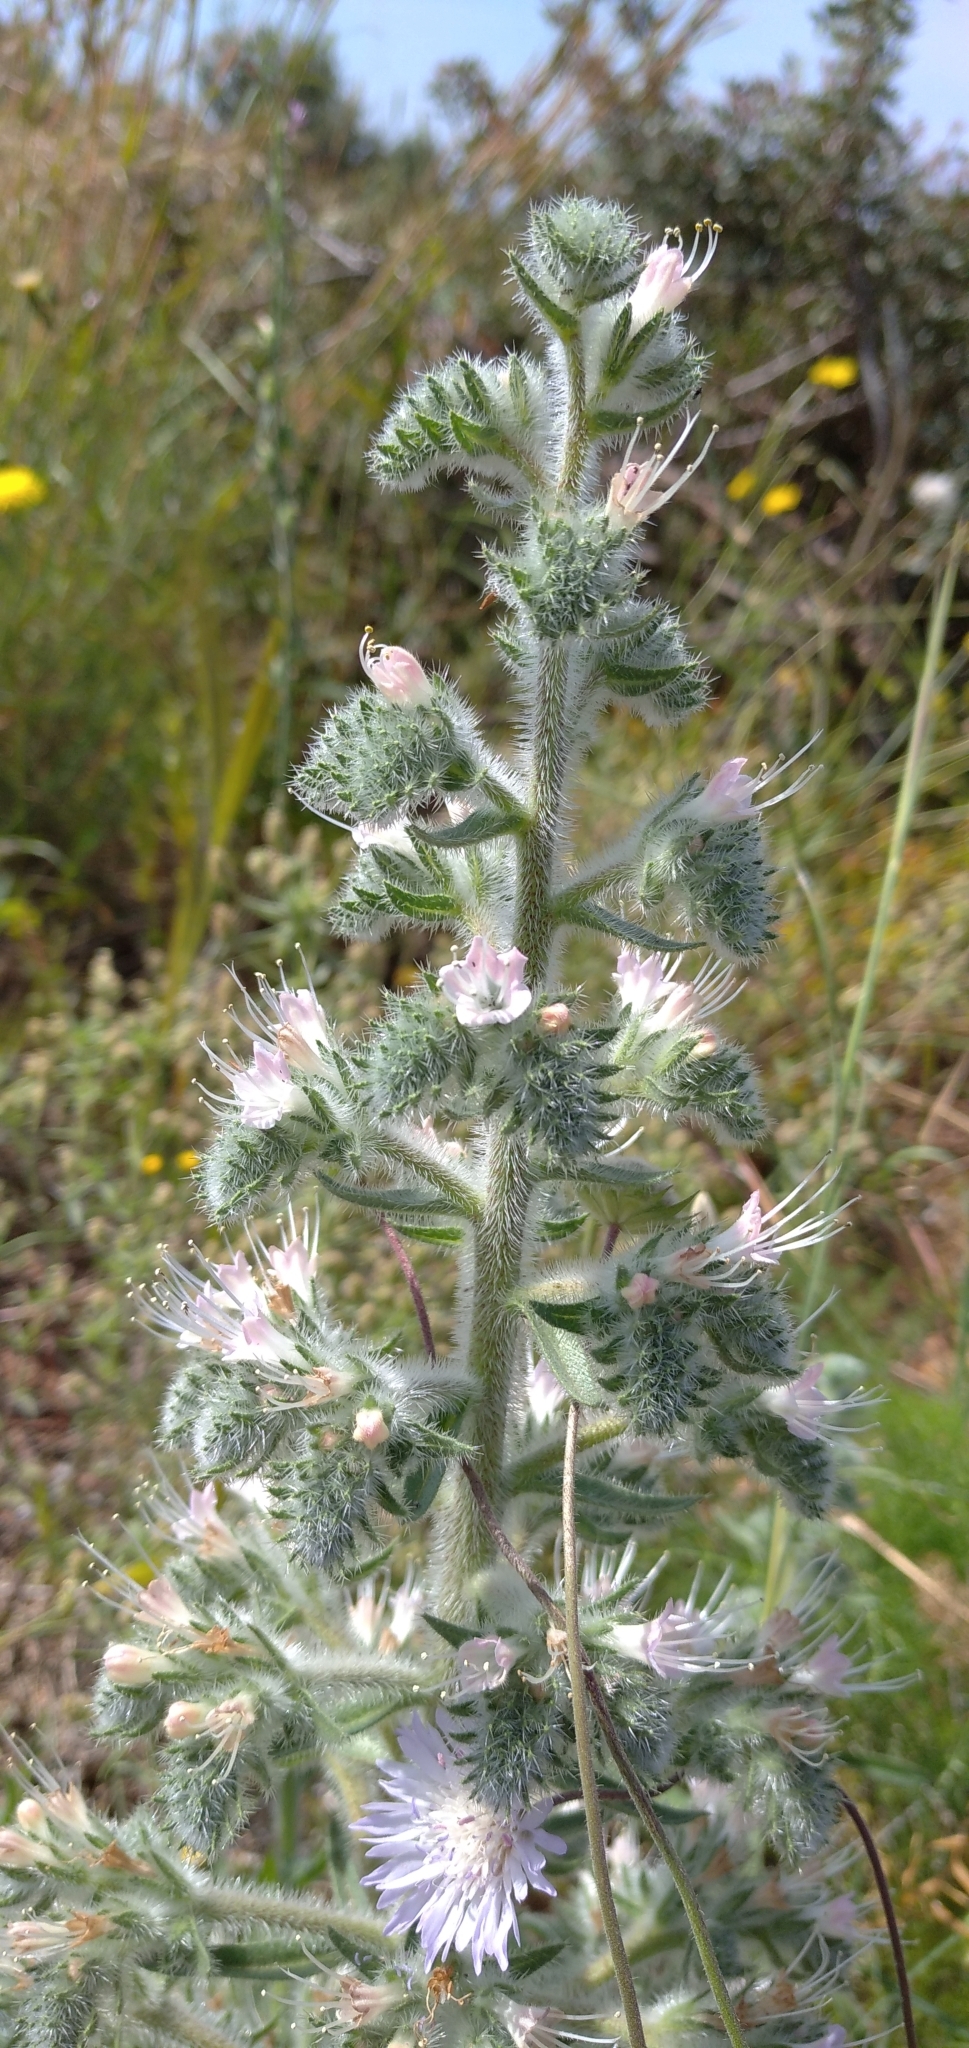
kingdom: Plantae
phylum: Tracheophyta
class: Magnoliopsida
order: Boraginales
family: Boraginaceae
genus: Echium
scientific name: Echium italicum
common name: Italian viper's bugloss
